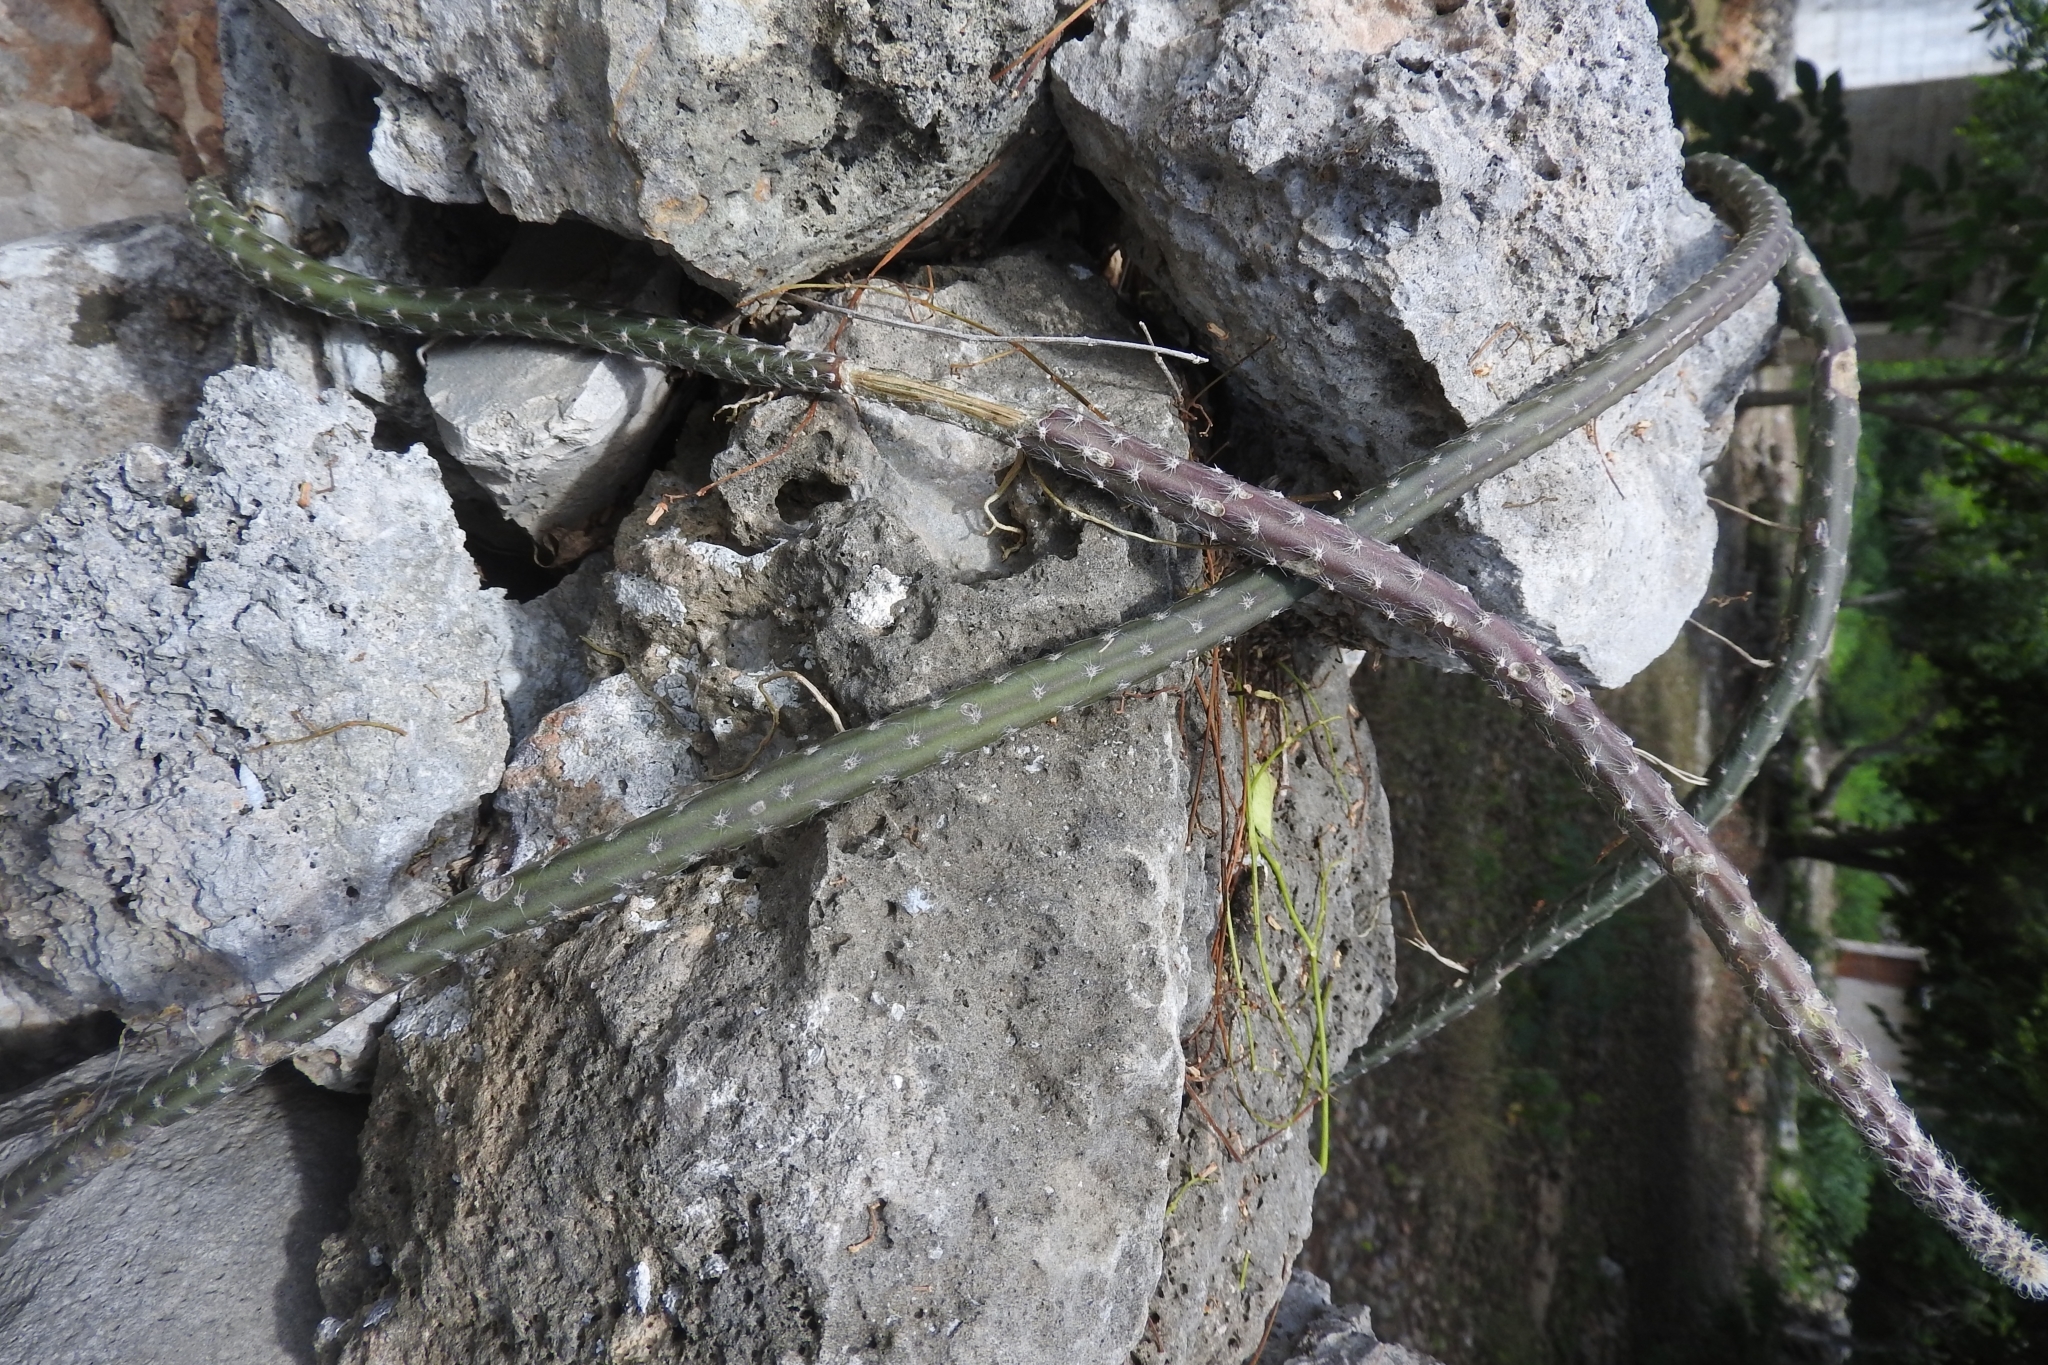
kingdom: Plantae
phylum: Tracheophyta
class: Magnoliopsida
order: Caryophyllales
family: Cactaceae
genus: Selenicereus
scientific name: Selenicereus grandiflorus
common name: Queen of the night
